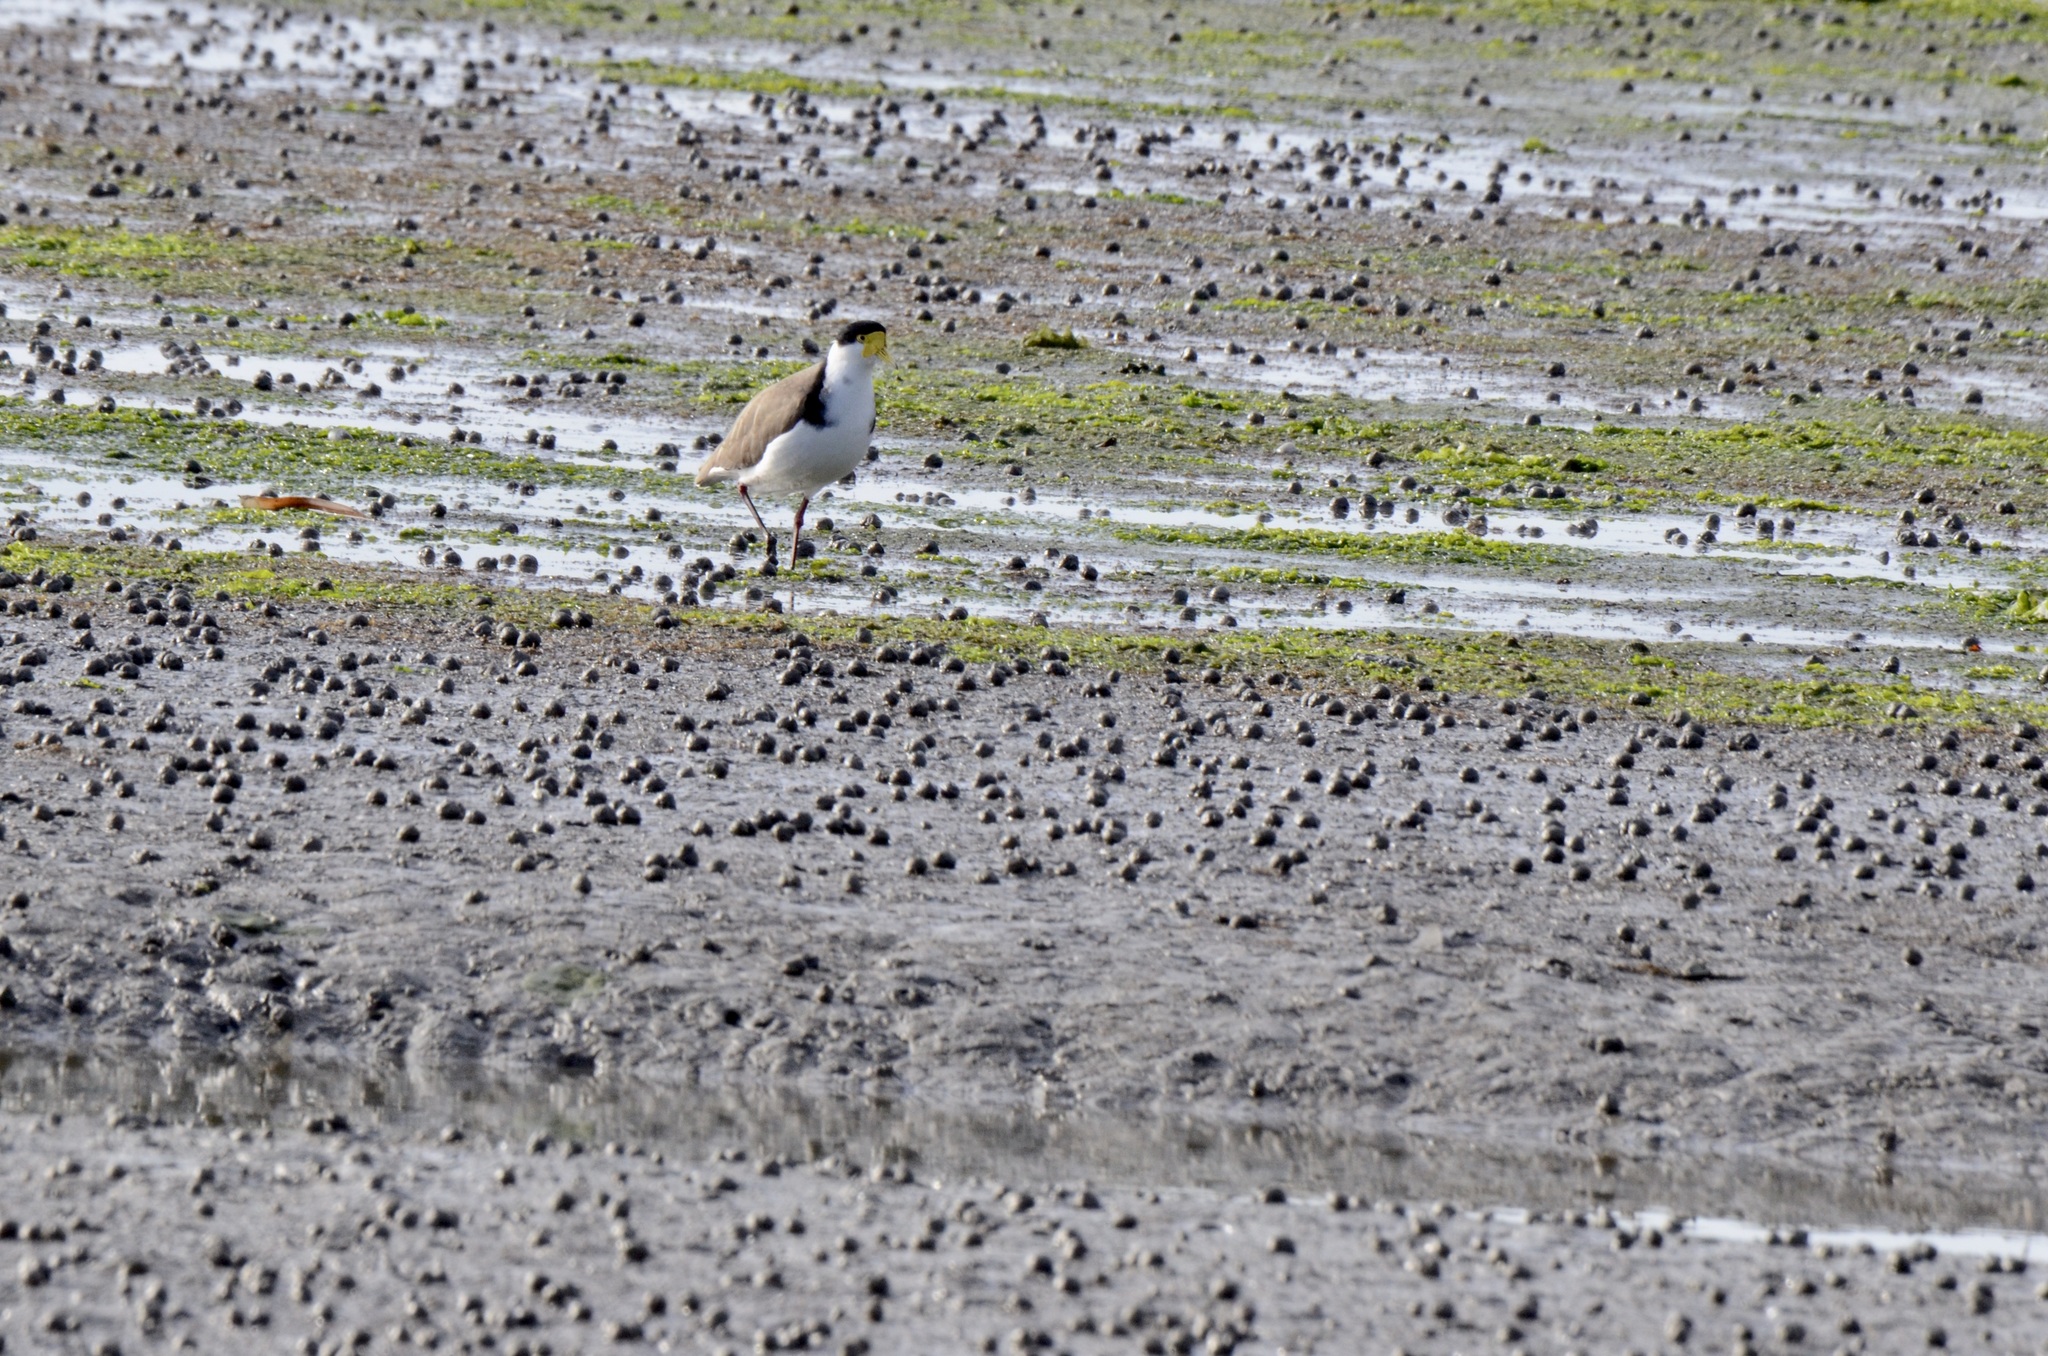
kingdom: Animalia
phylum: Chordata
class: Aves
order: Charadriiformes
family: Charadriidae
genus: Vanellus
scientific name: Vanellus miles
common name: Masked lapwing
